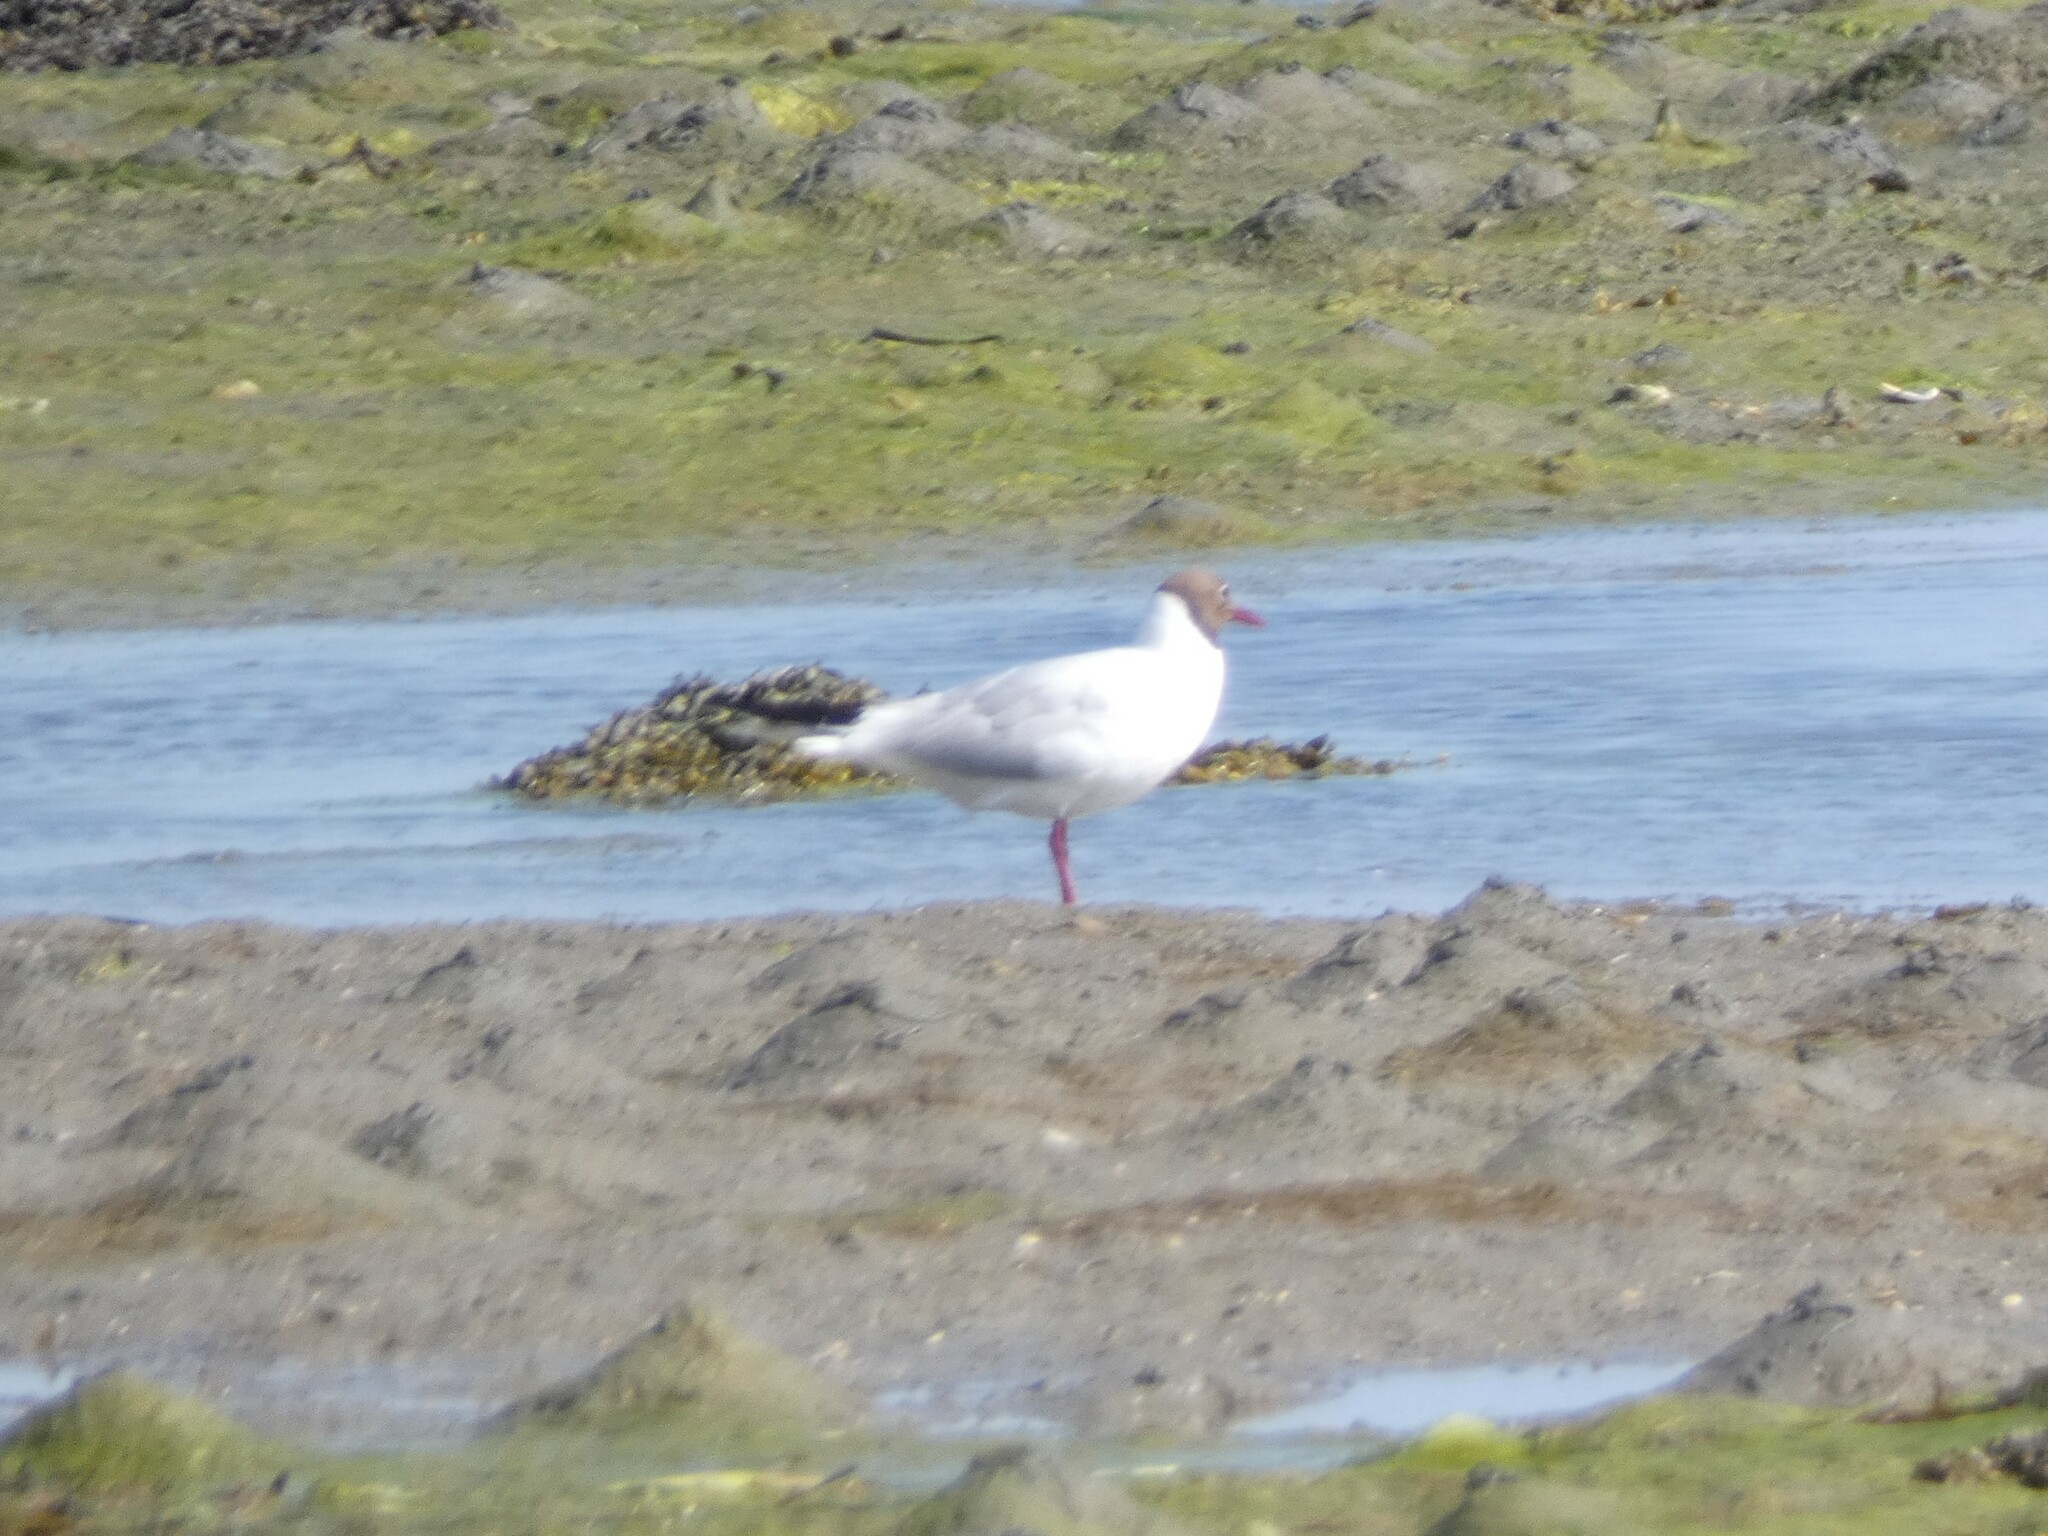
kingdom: Animalia
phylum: Chordata
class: Aves
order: Charadriiformes
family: Laridae
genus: Chroicocephalus
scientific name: Chroicocephalus ridibundus
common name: Black-headed gull
